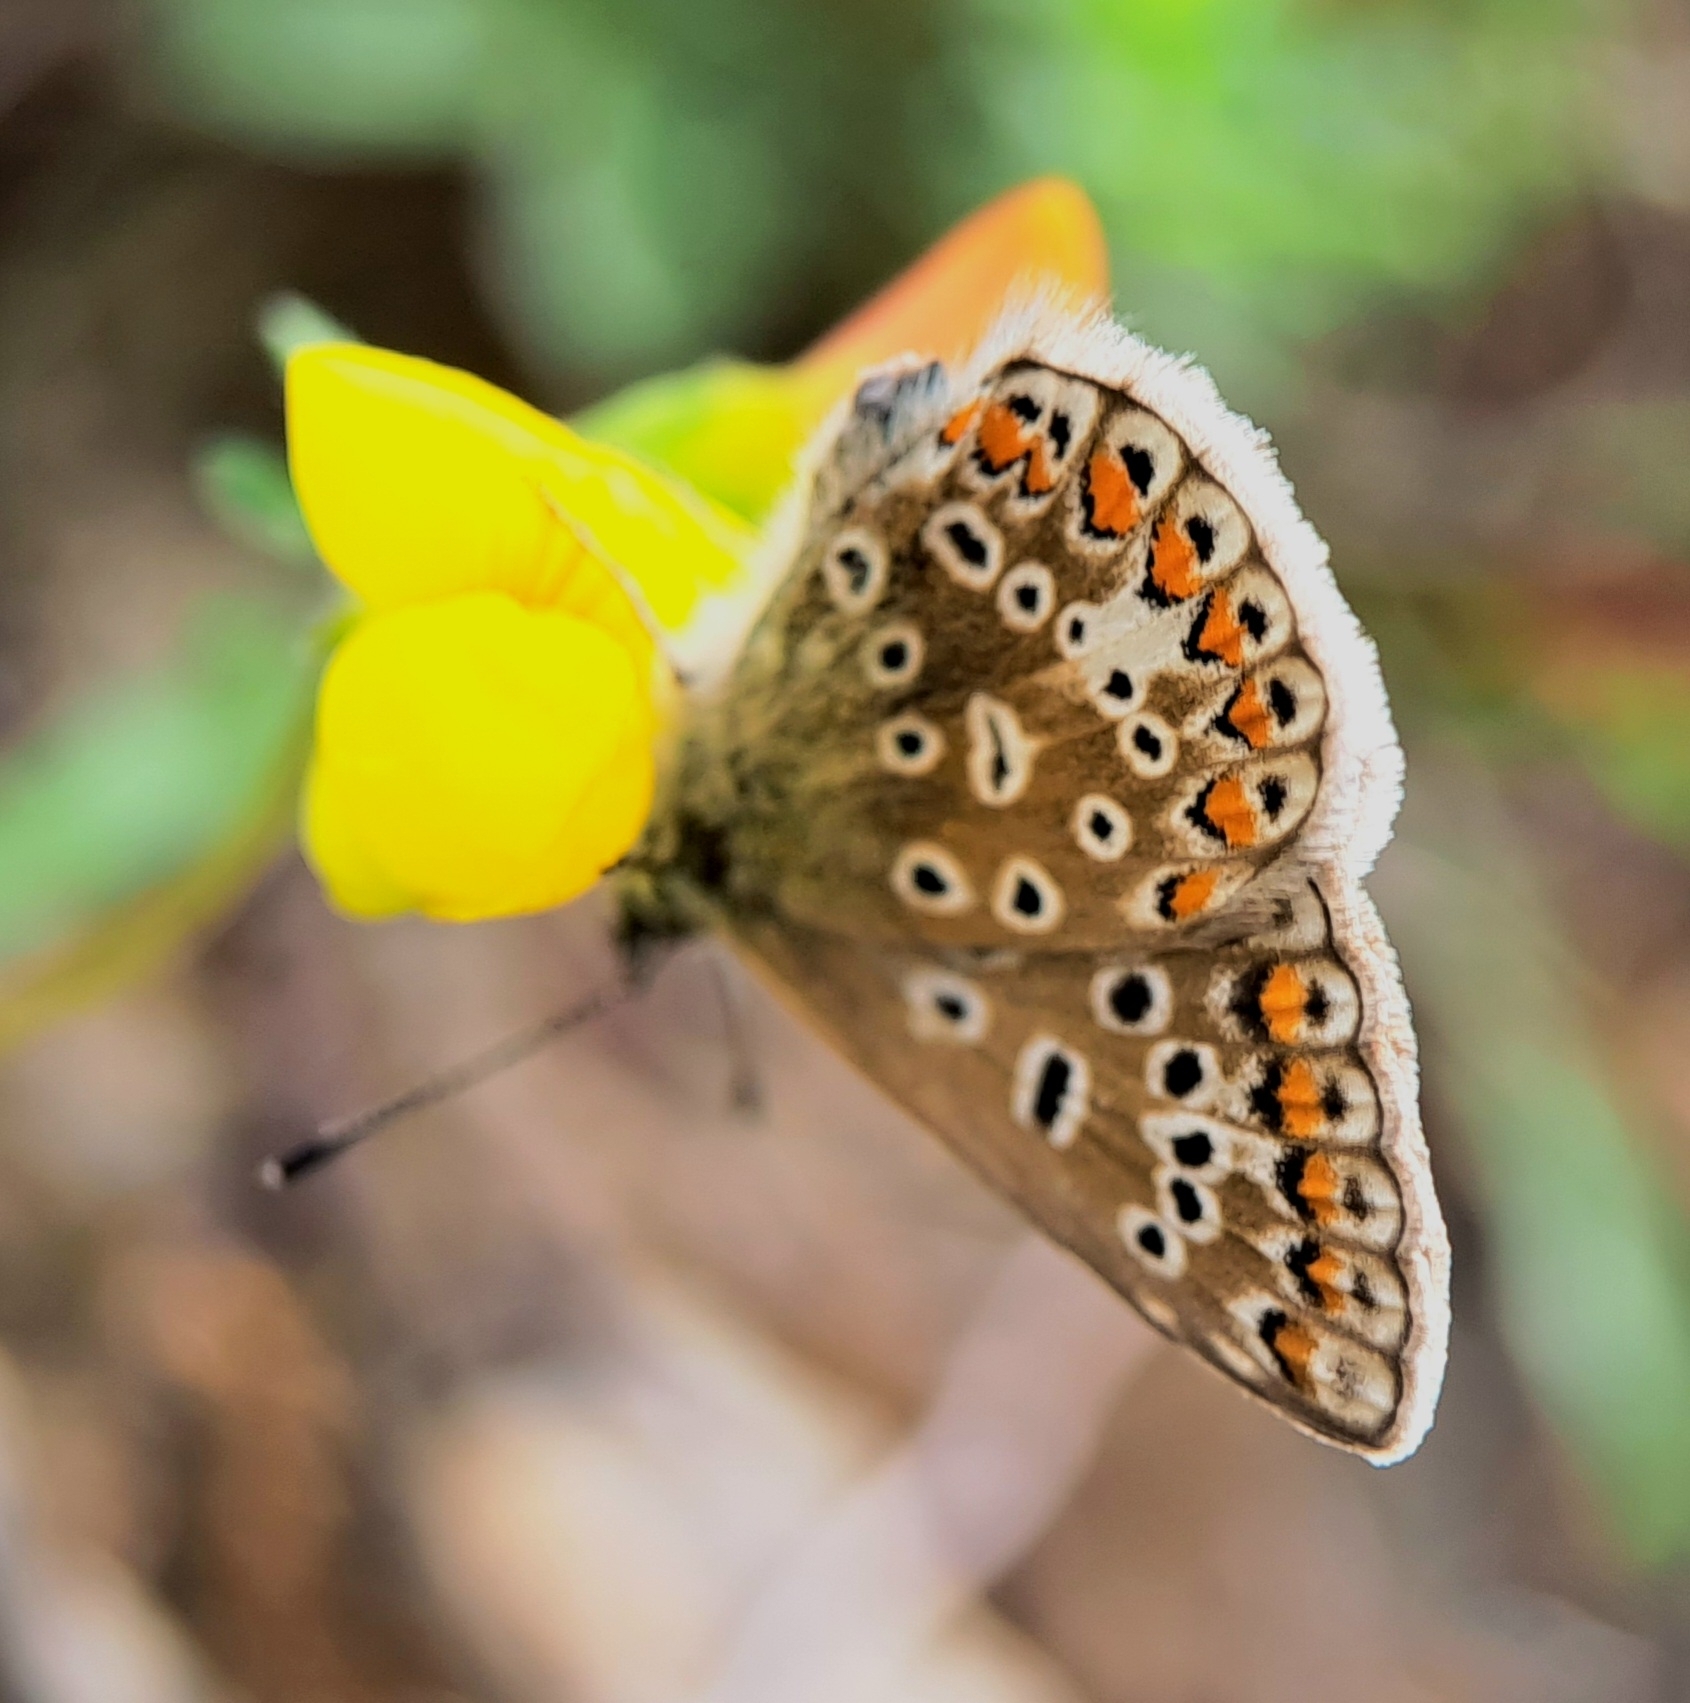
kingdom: Animalia
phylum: Arthropoda
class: Insecta
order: Lepidoptera
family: Lycaenidae
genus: Polyommatus
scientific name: Polyommatus icarus
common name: Common blue
